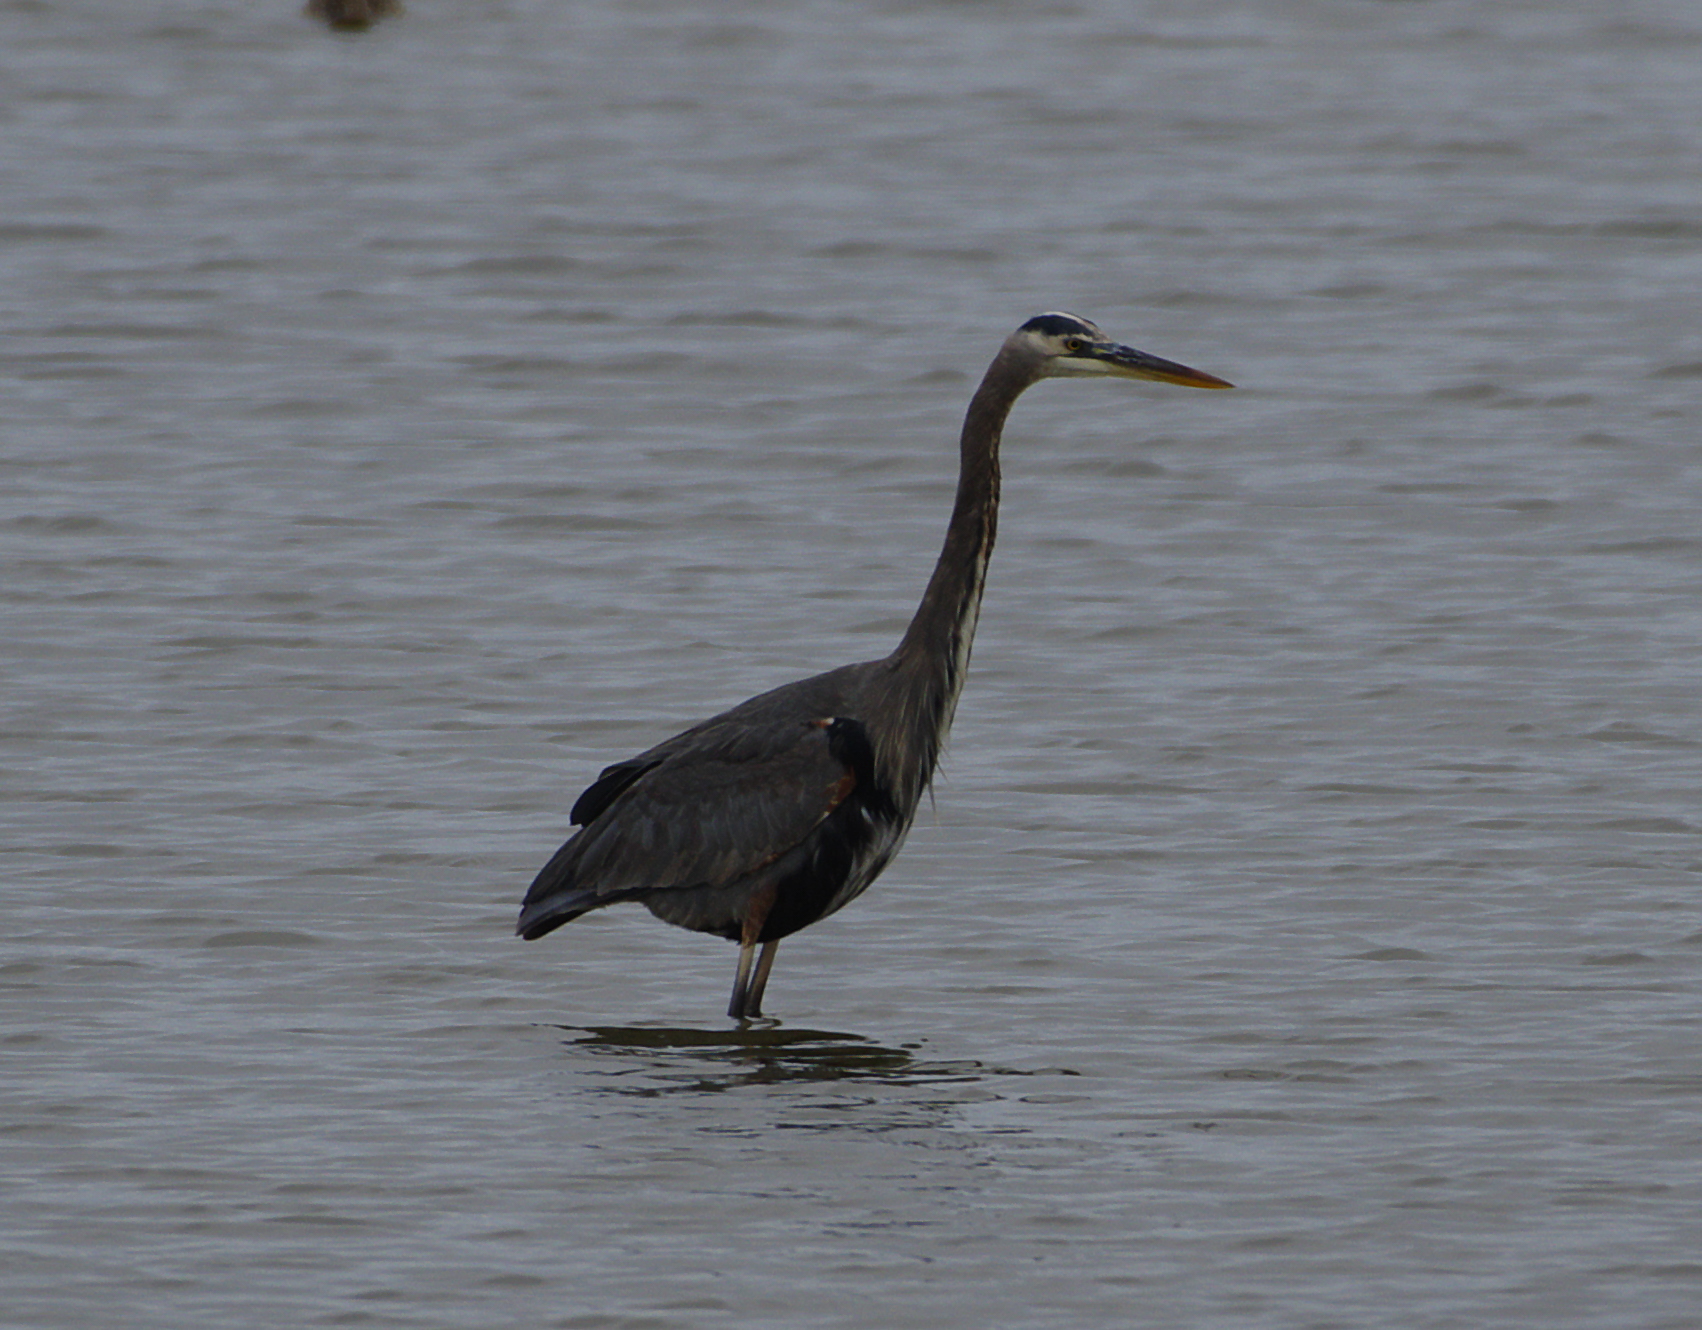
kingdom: Animalia
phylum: Chordata
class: Aves
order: Pelecaniformes
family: Ardeidae
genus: Ardea
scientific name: Ardea herodias
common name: Great blue heron
